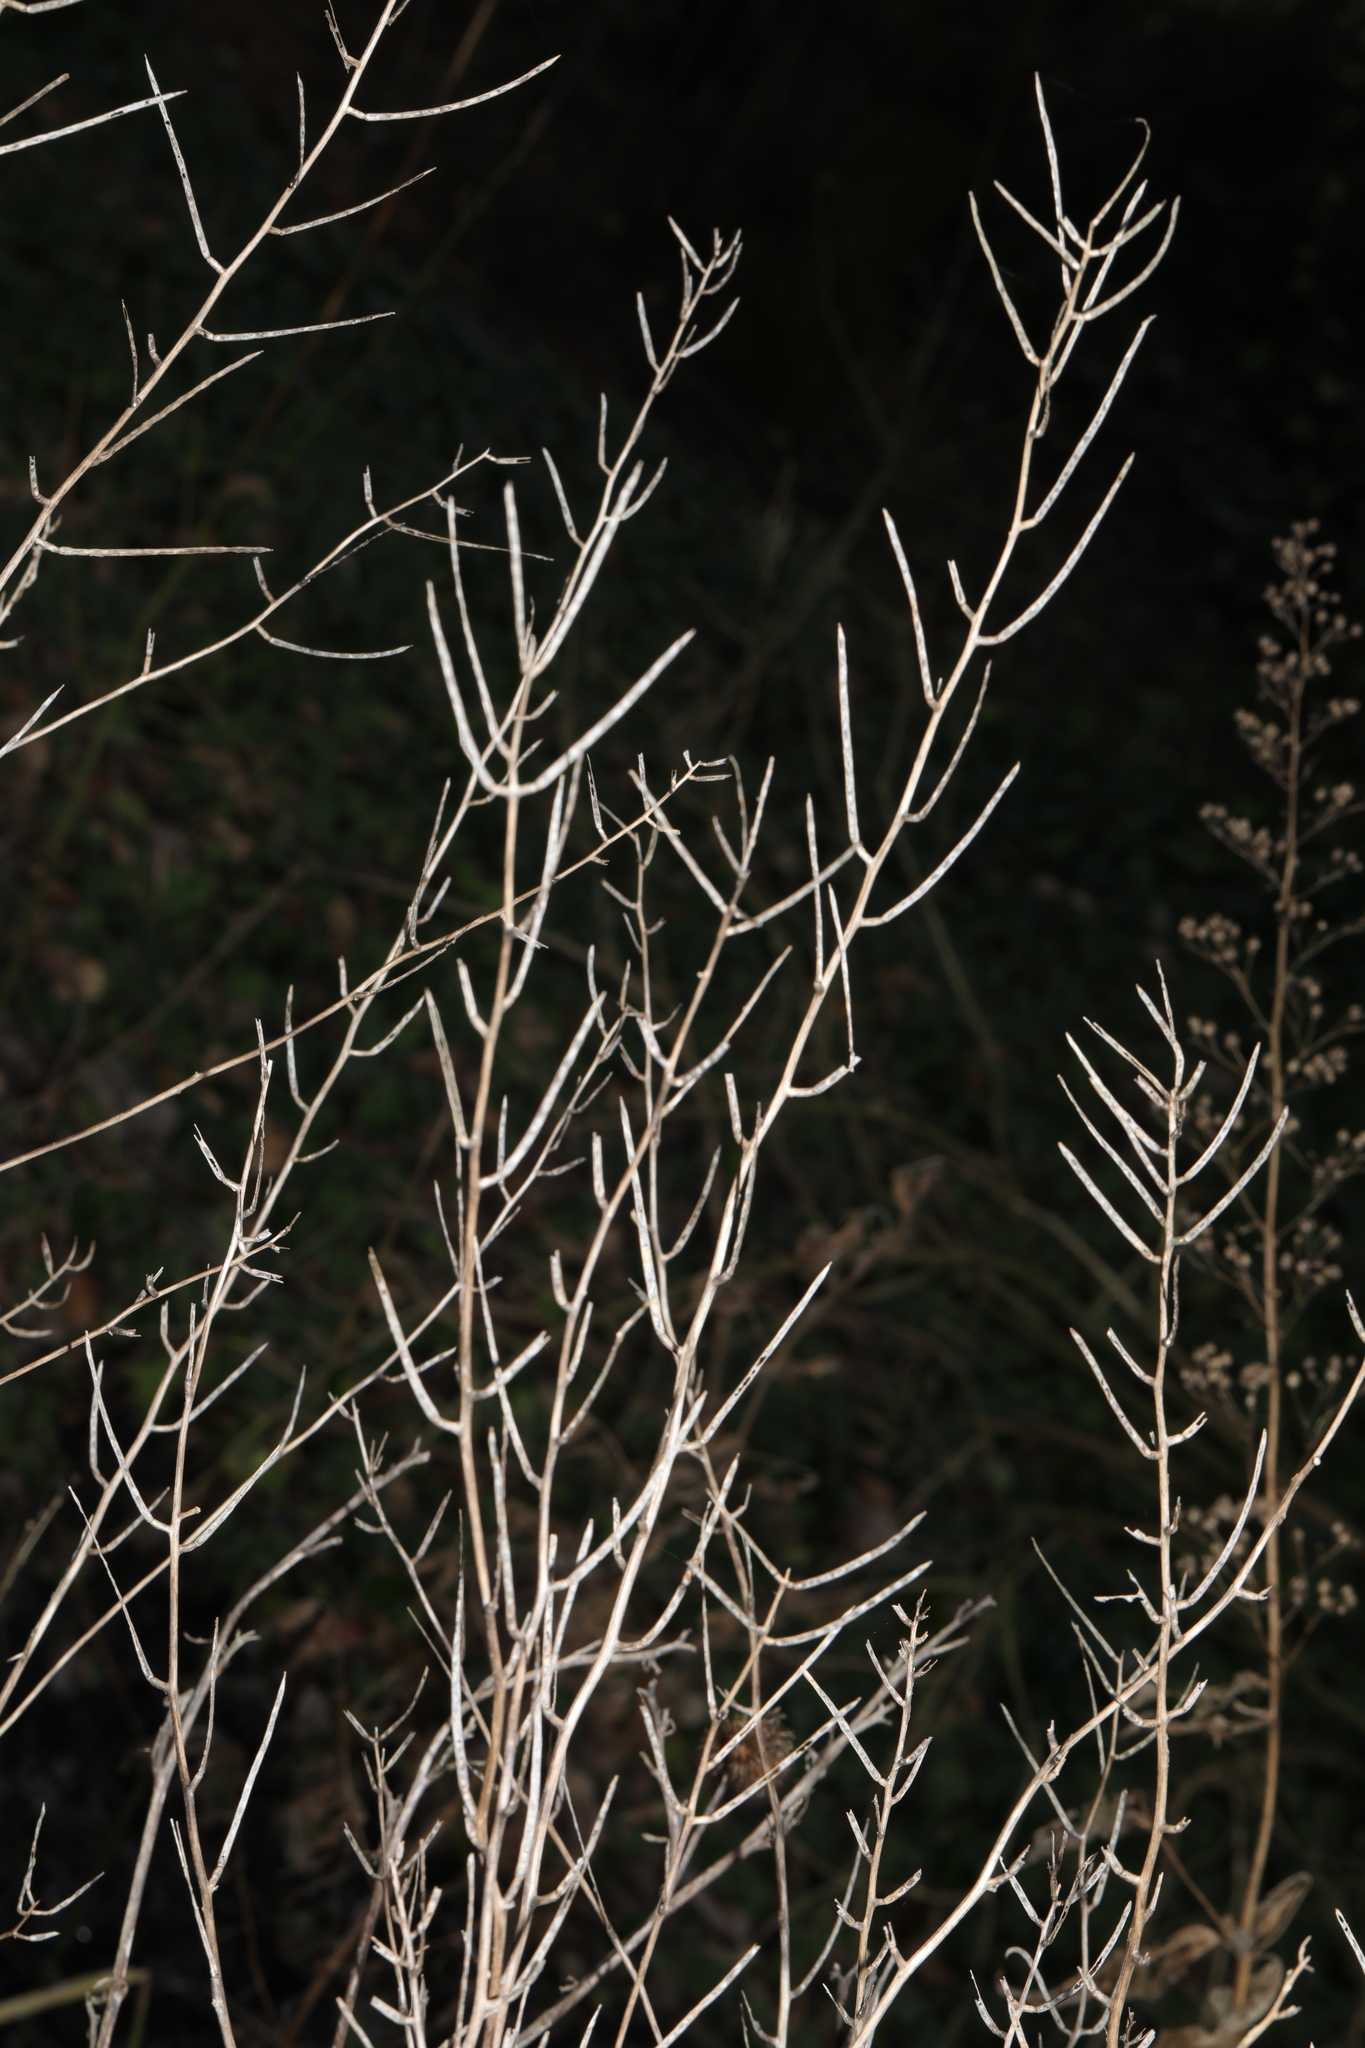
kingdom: Plantae
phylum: Tracheophyta
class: Magnoliopsida
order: Brassicales
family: Brassicaceae
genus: Alliaria
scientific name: Alliaria petiolata
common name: Garlic mustard
